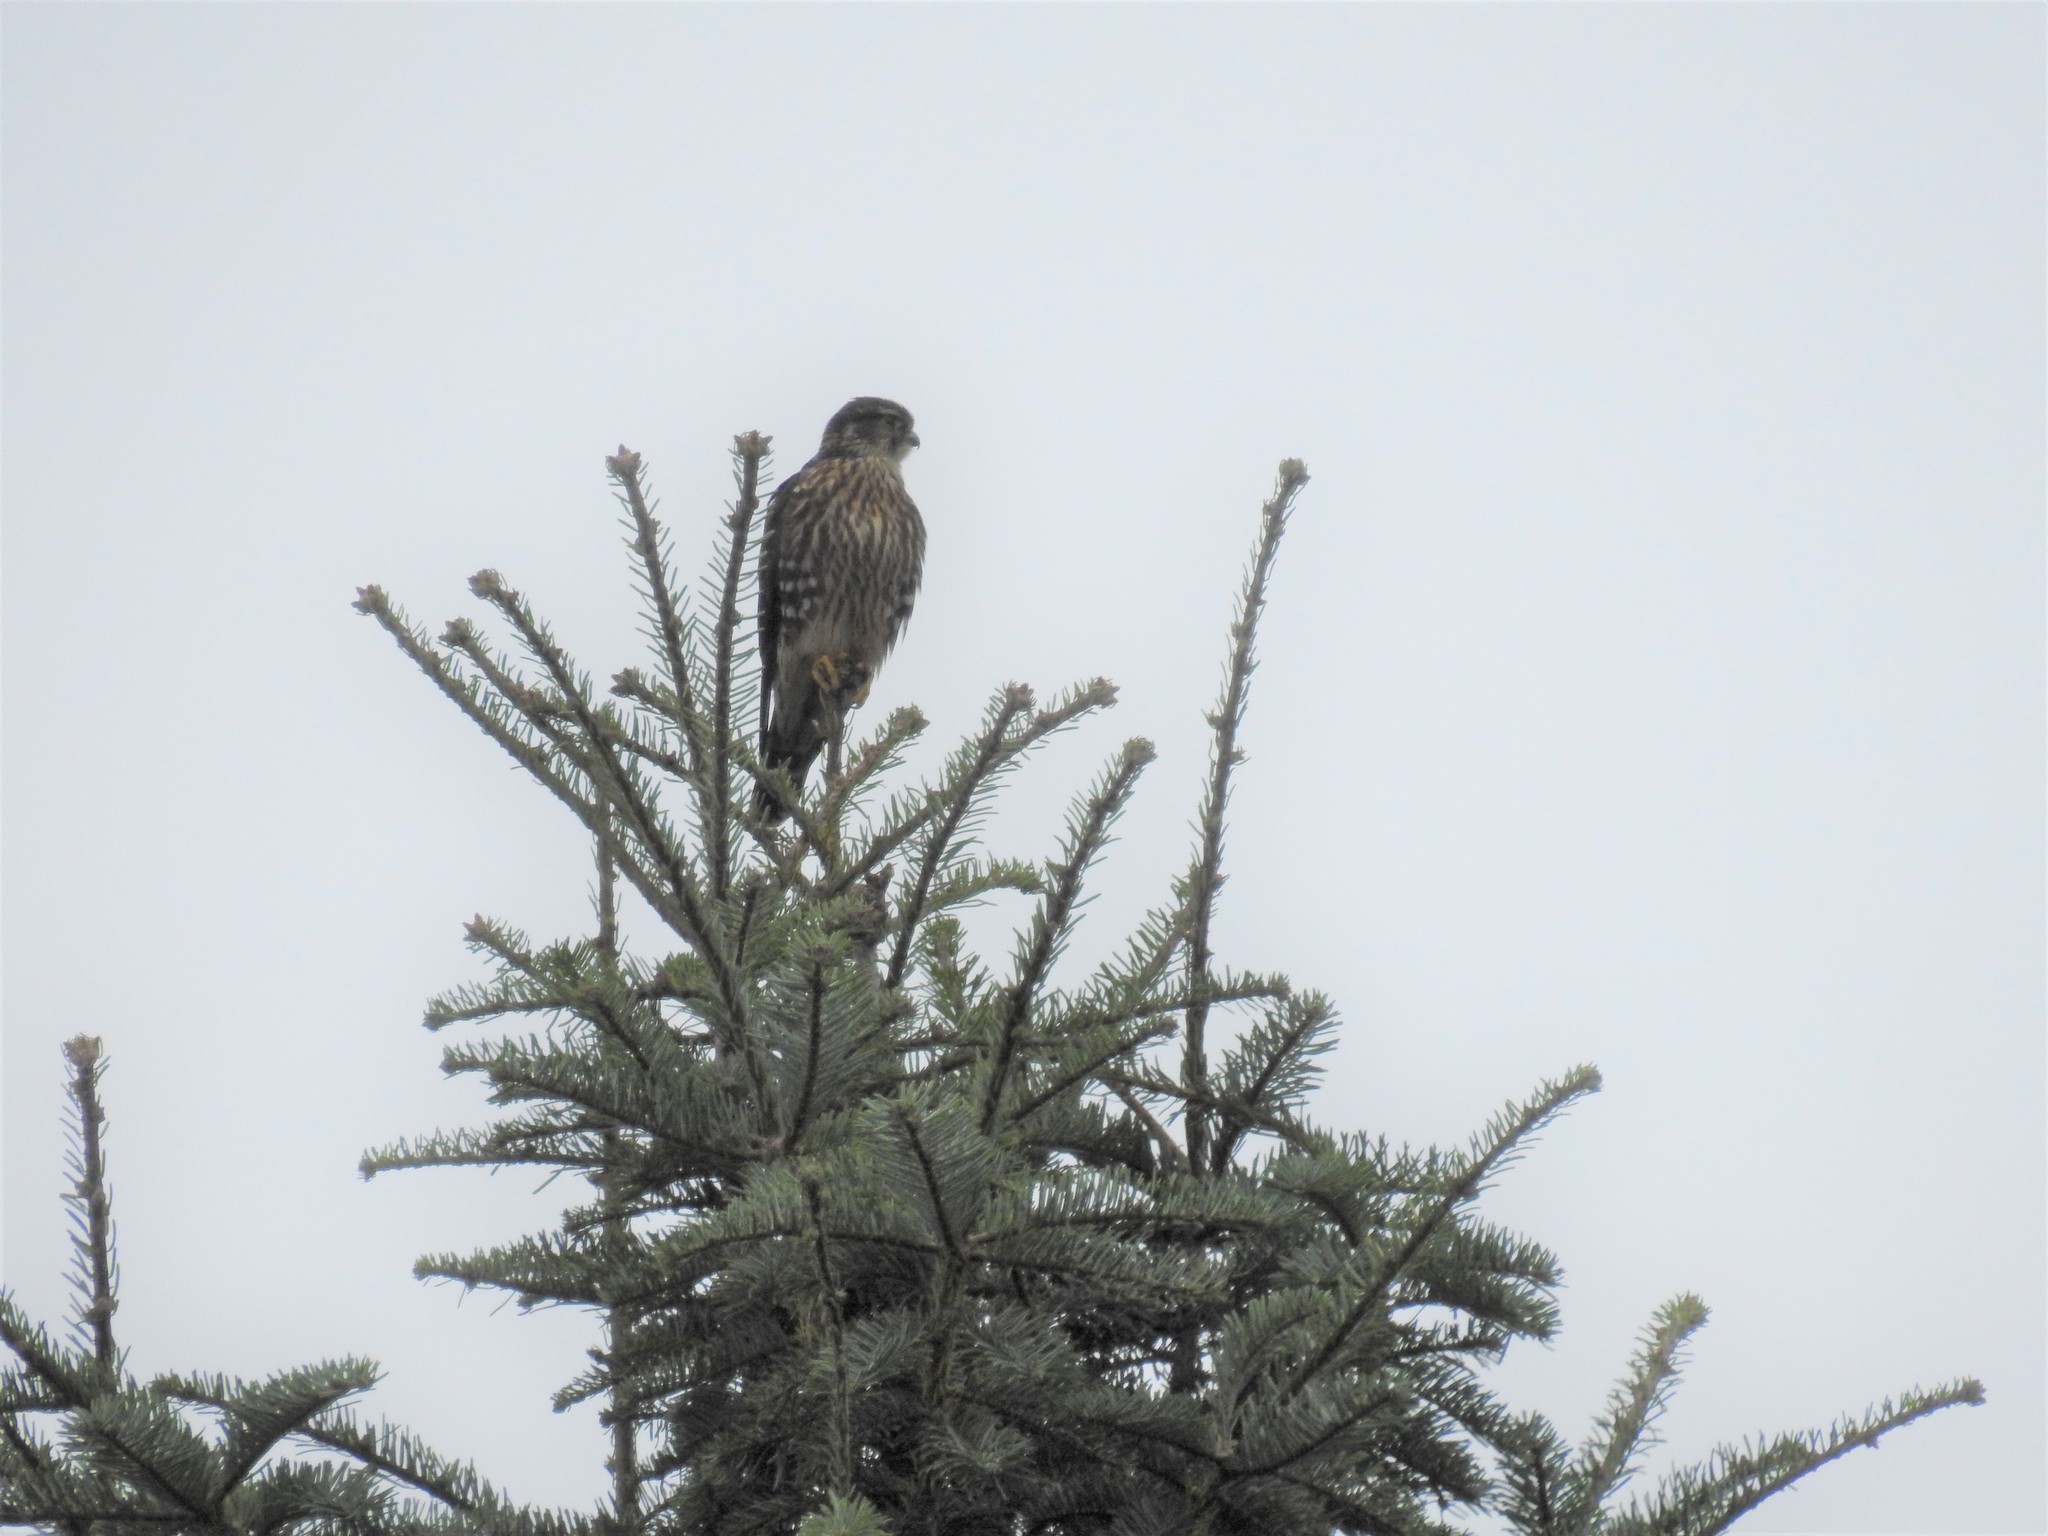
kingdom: Animalia
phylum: Chordata
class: Aves
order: Falconiformes
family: Falconidae
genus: Falco
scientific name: Falco columbarius
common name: Merlin
